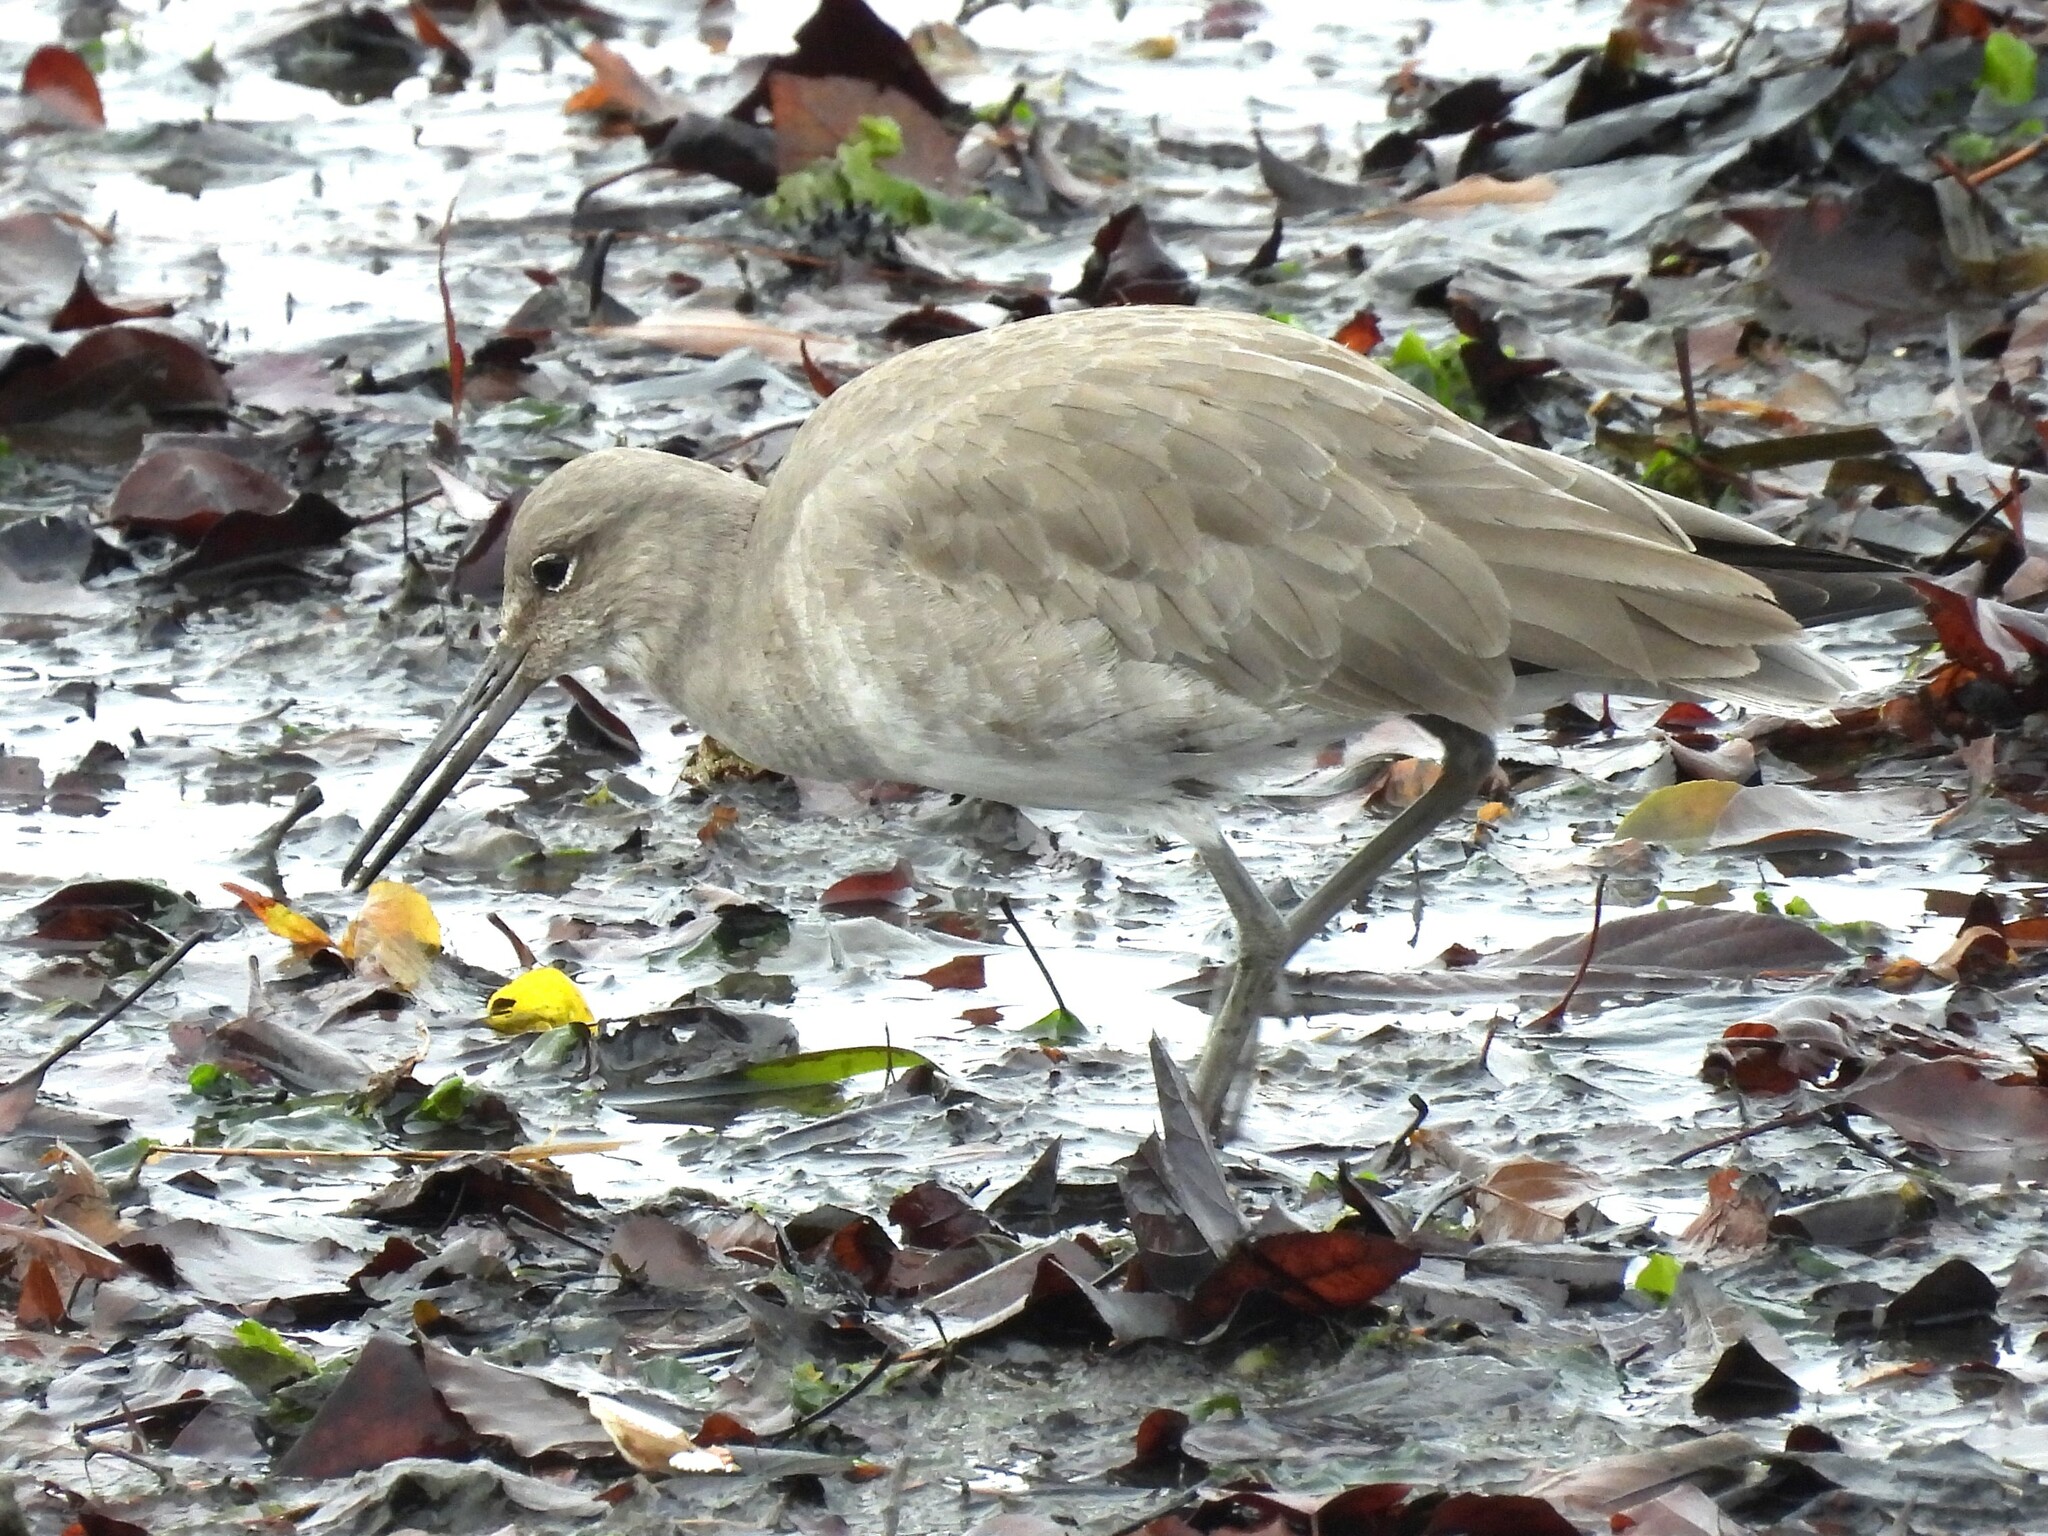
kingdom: Animalia
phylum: Chordata
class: Aves
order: Charadriiformes
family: Scolopacidae
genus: Tringa
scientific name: Tringa semipalmata
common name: Willet
